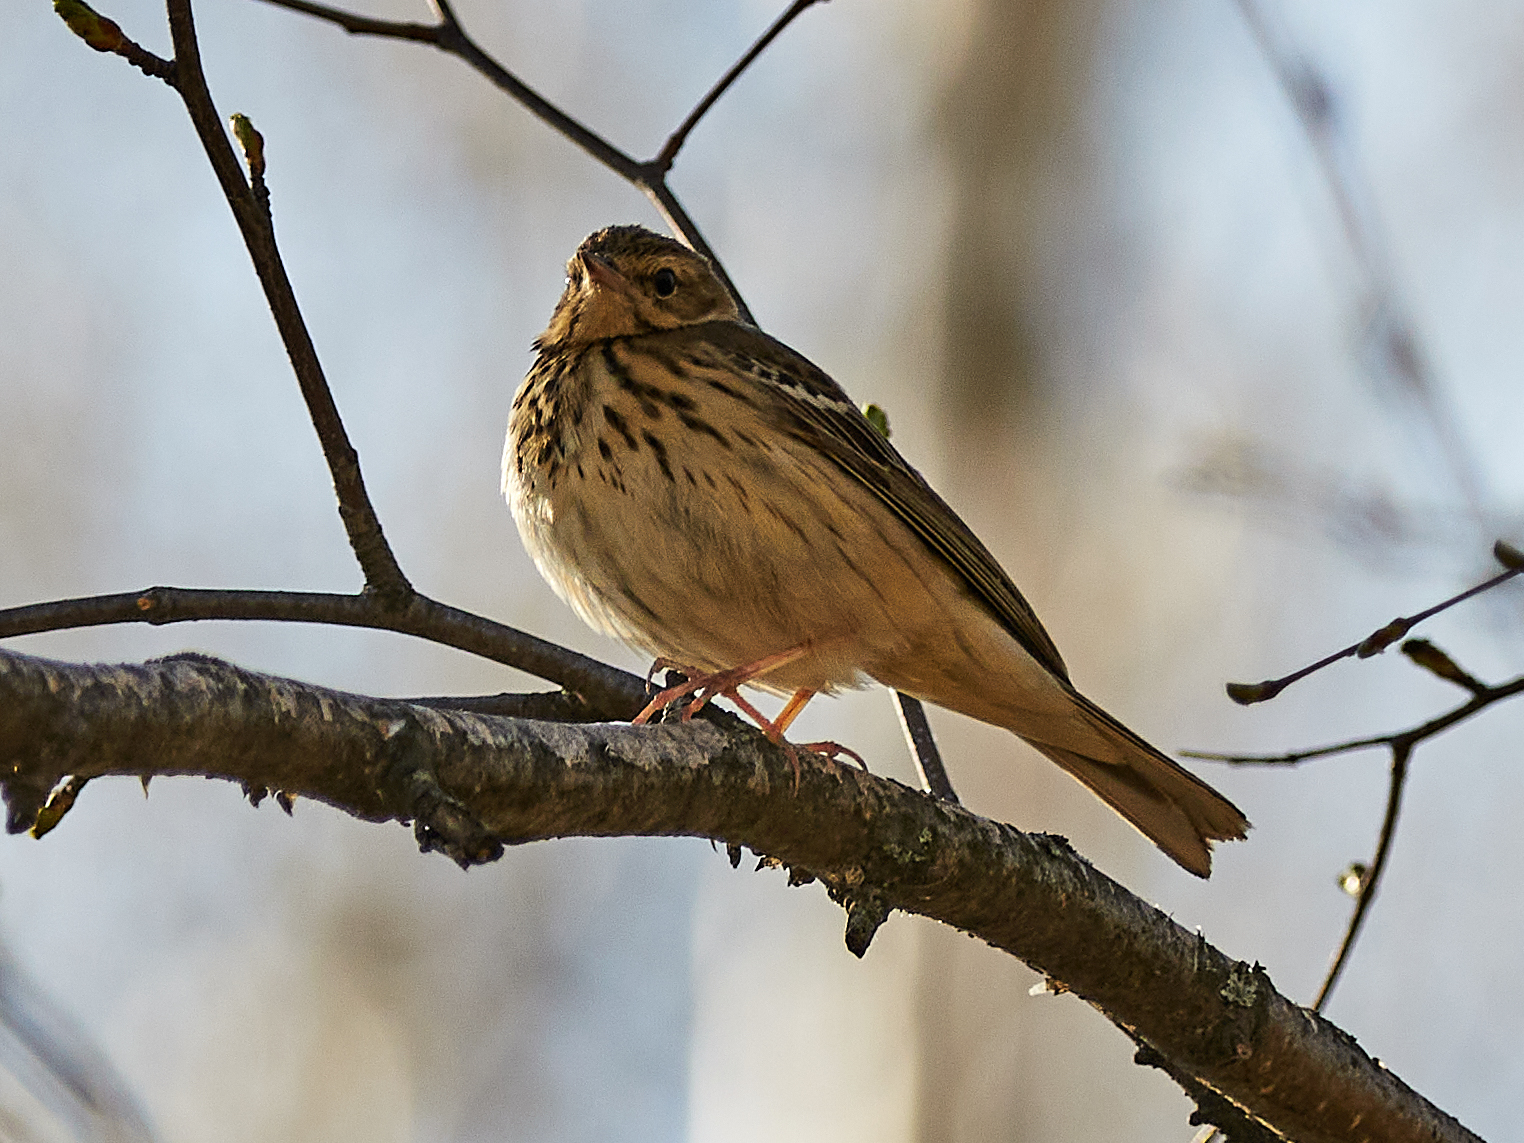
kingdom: Animalia
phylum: Chordata
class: Aves
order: Passeriformes
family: Motacillidae
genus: Anthus
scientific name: Anthus trivialis
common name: Tree pipit
